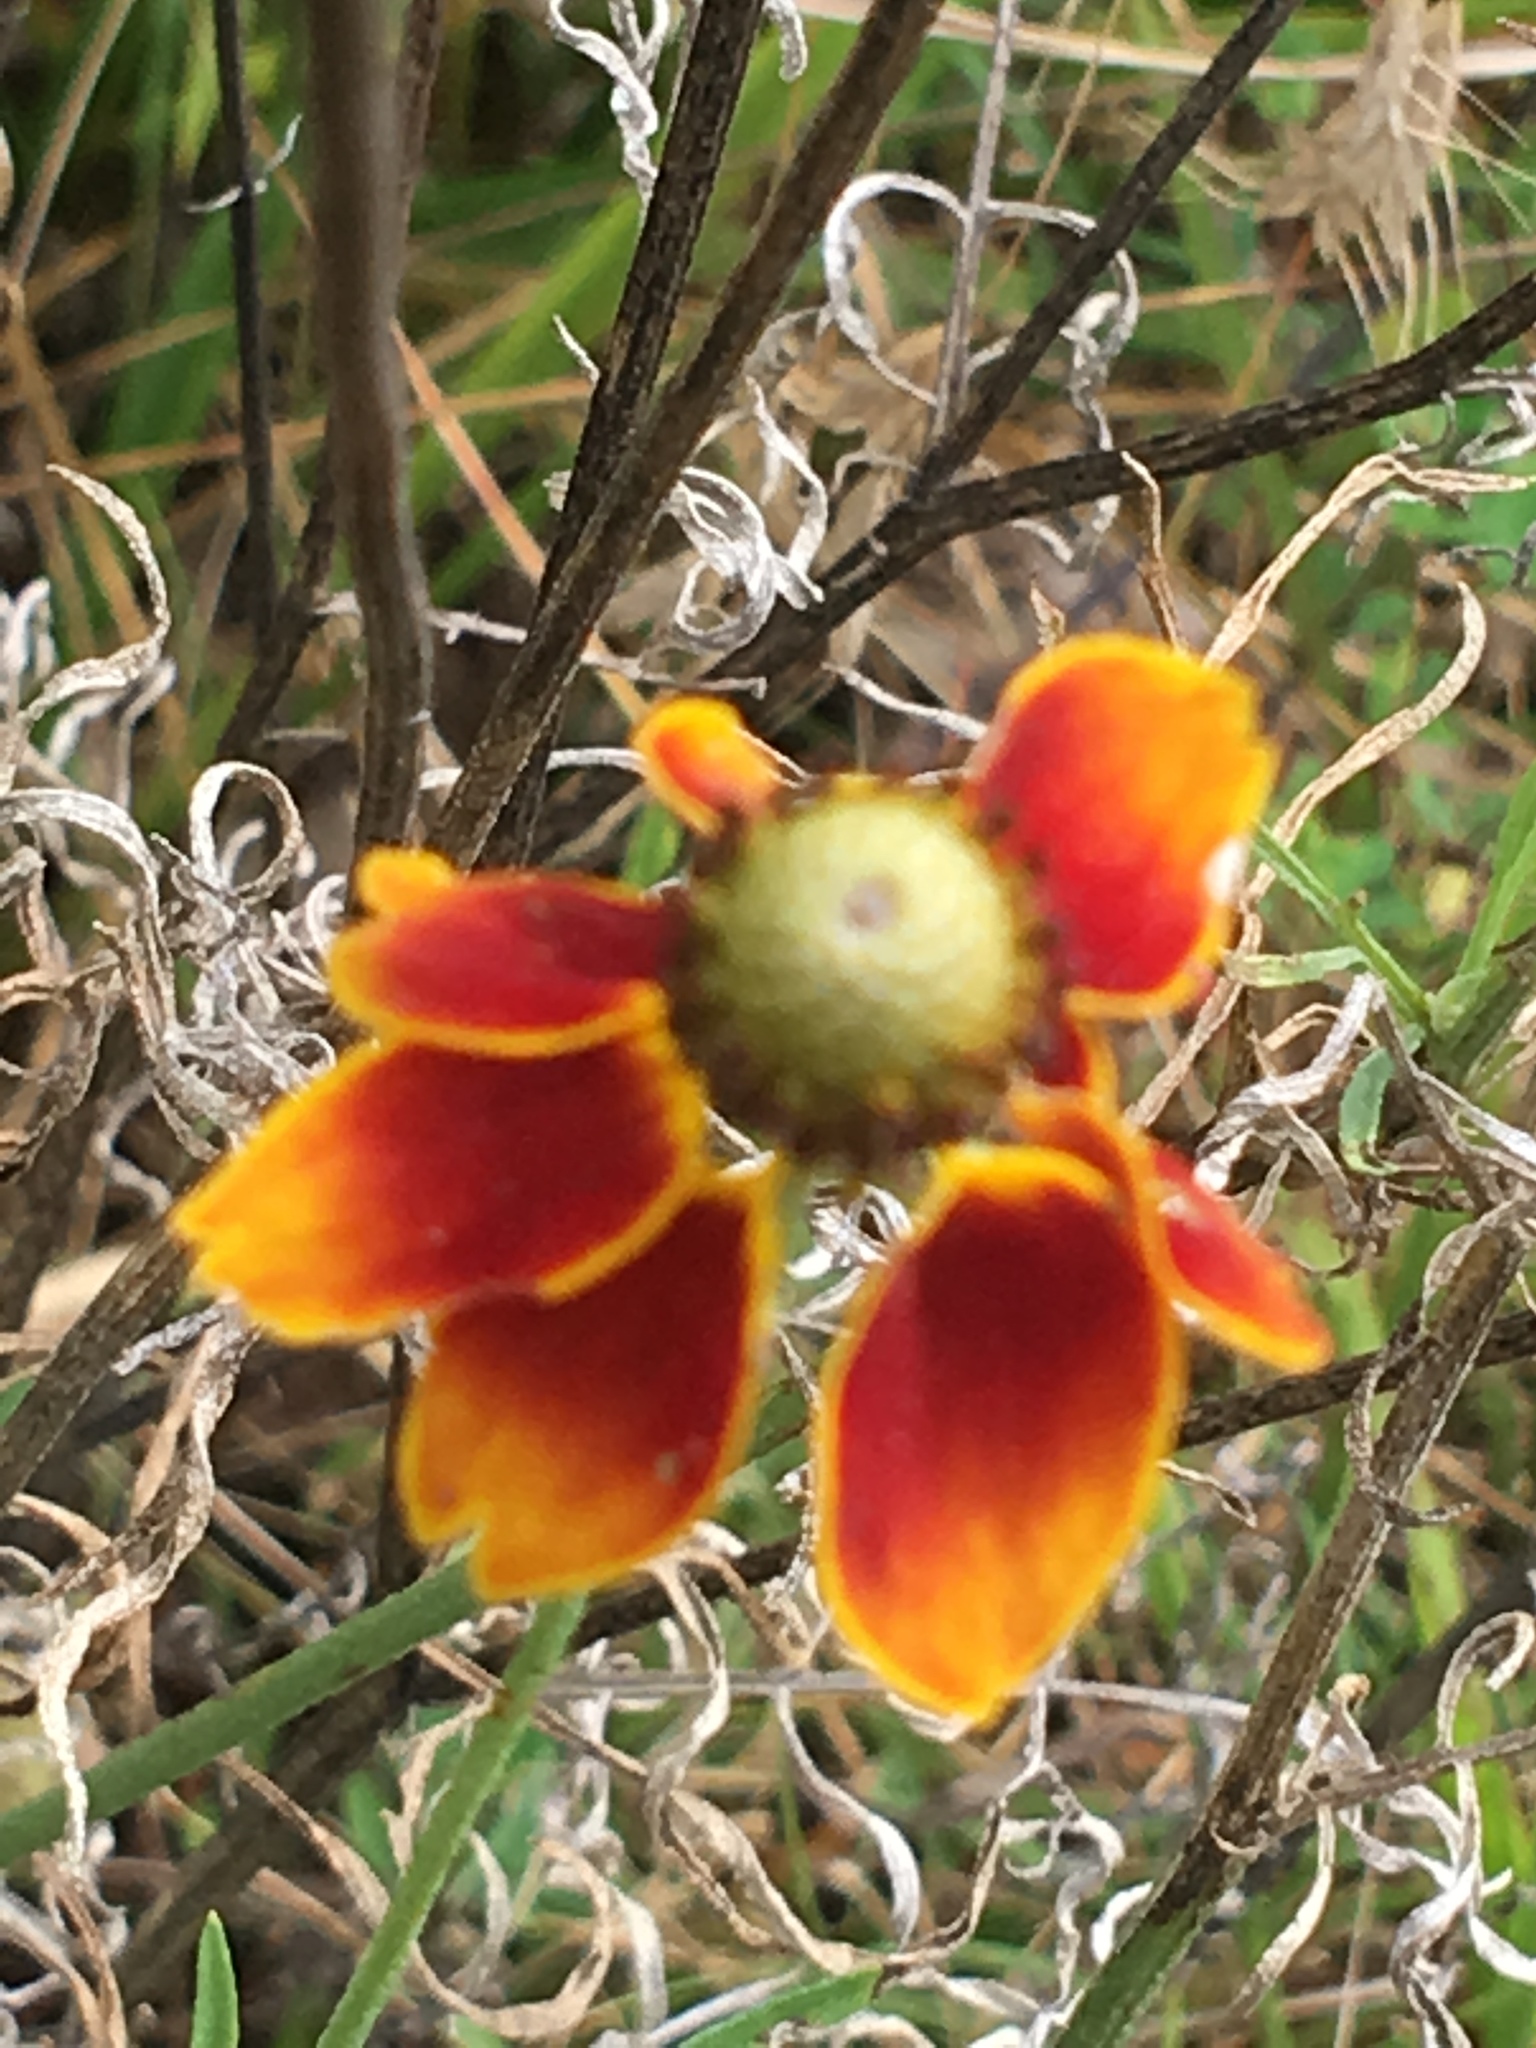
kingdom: Plantae
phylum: Tracheophyta
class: Magnoliopsida
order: Asterales
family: Asteraceae
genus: Ratibida
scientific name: Ratibida columnifera
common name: Prairie coneflower
